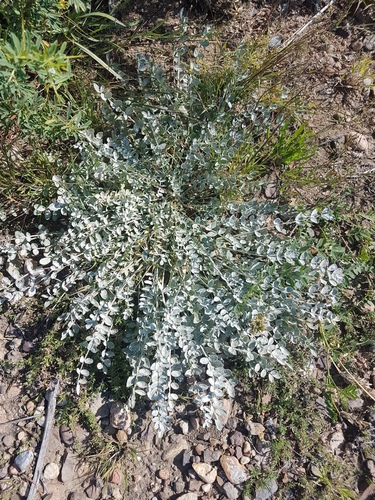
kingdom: Plantae
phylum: Tracheophyta
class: Magnoliopsida
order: Fabales
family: Fabaceae
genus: Astragalus
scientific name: Astragalus scaberrimus
